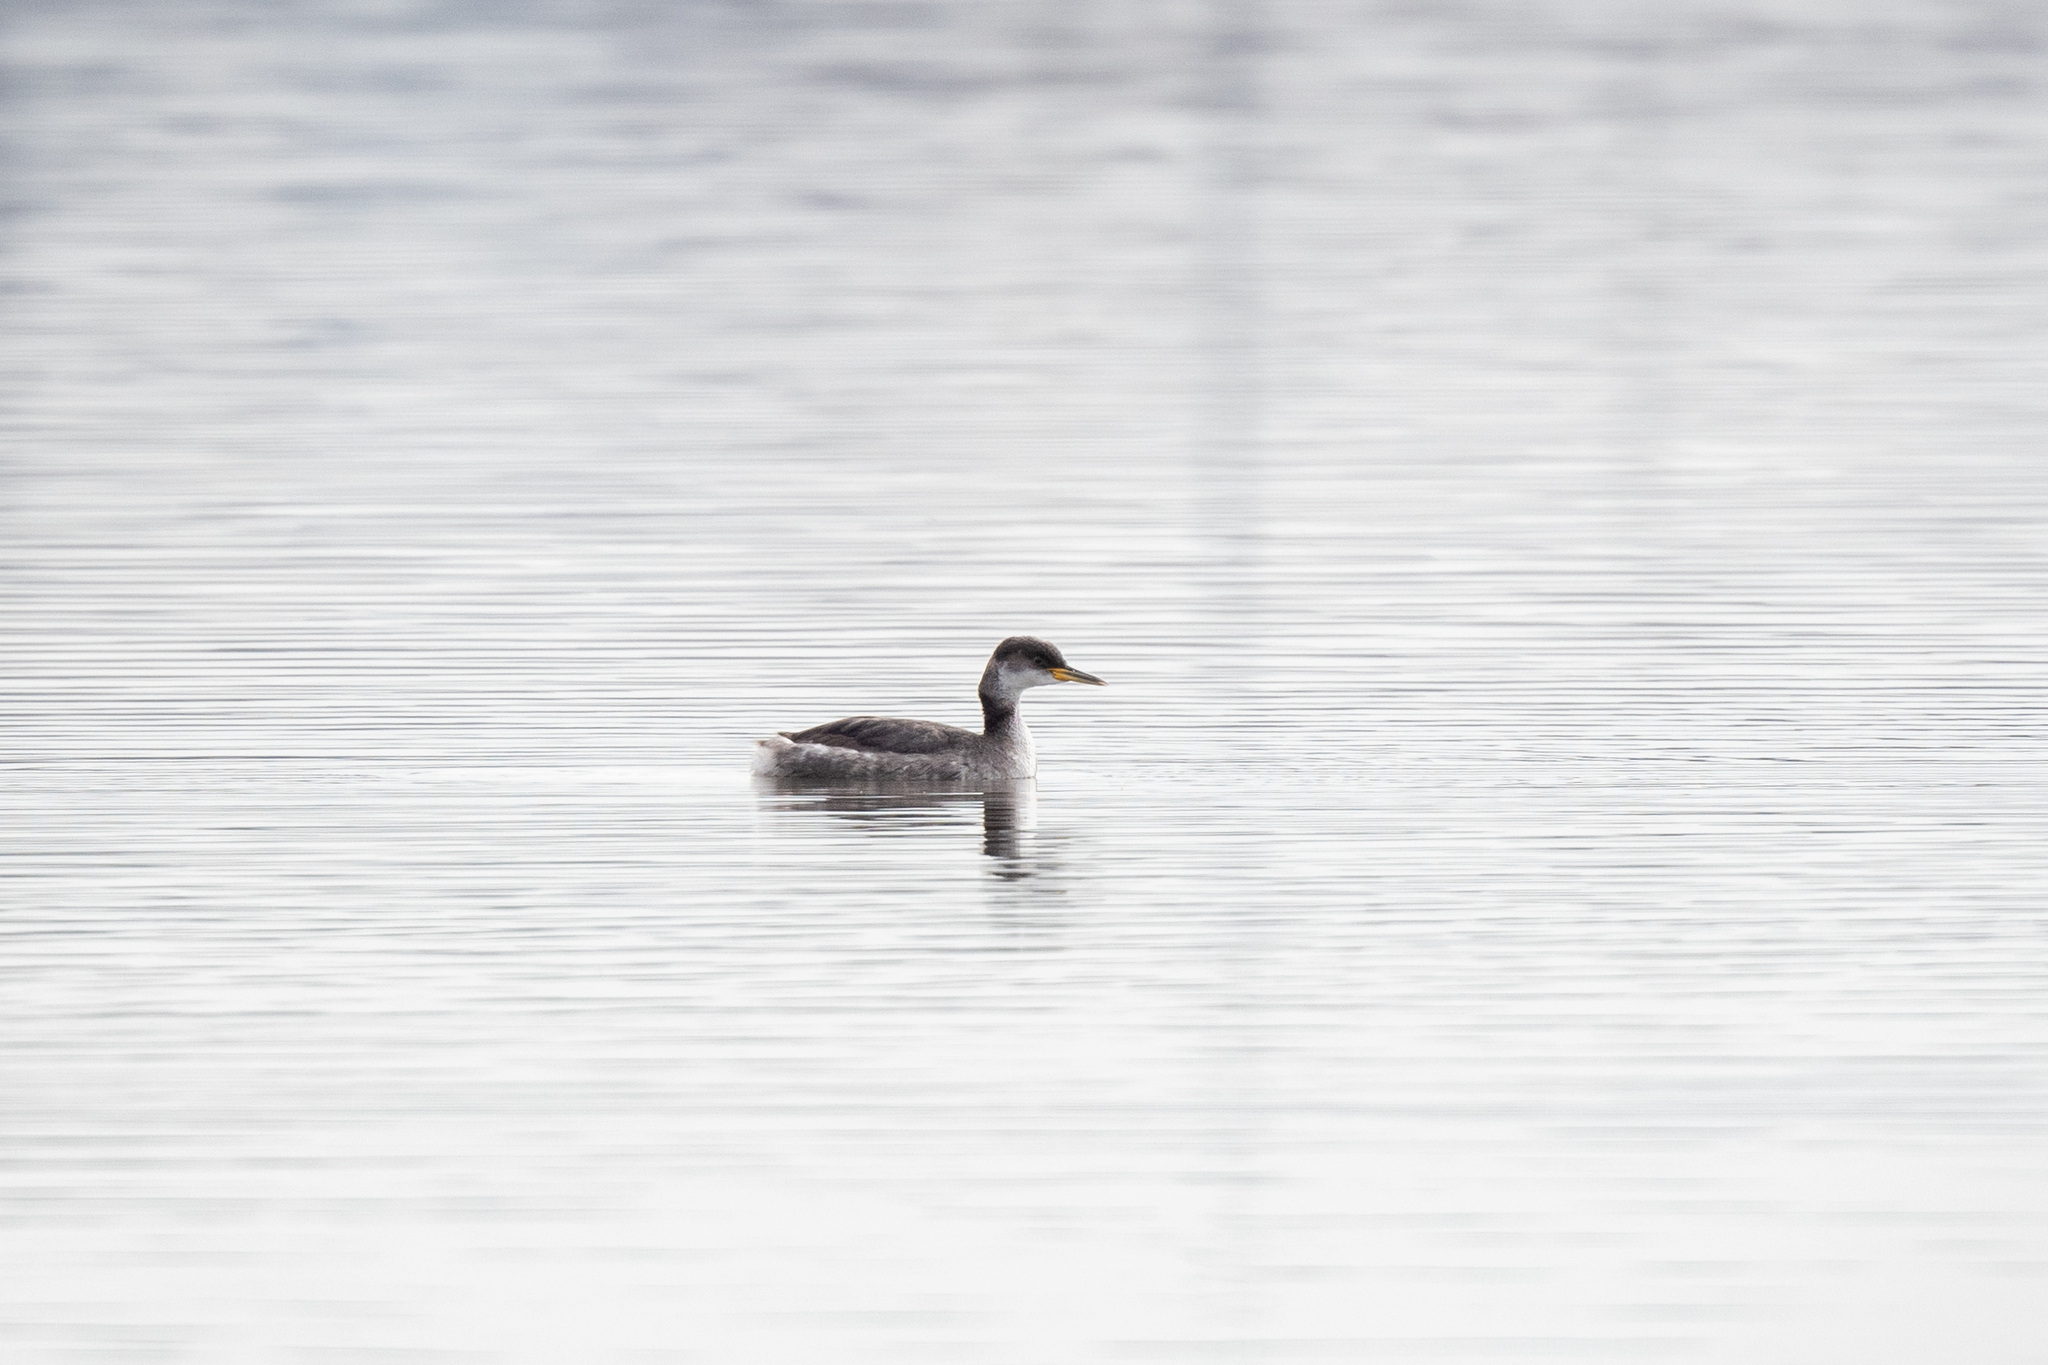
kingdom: Animalia
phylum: Chordata
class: Aves
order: Podicipediformes
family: Podicipedidae
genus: Podiceps
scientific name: Podiceps grisegena
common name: Red-necked grebe
